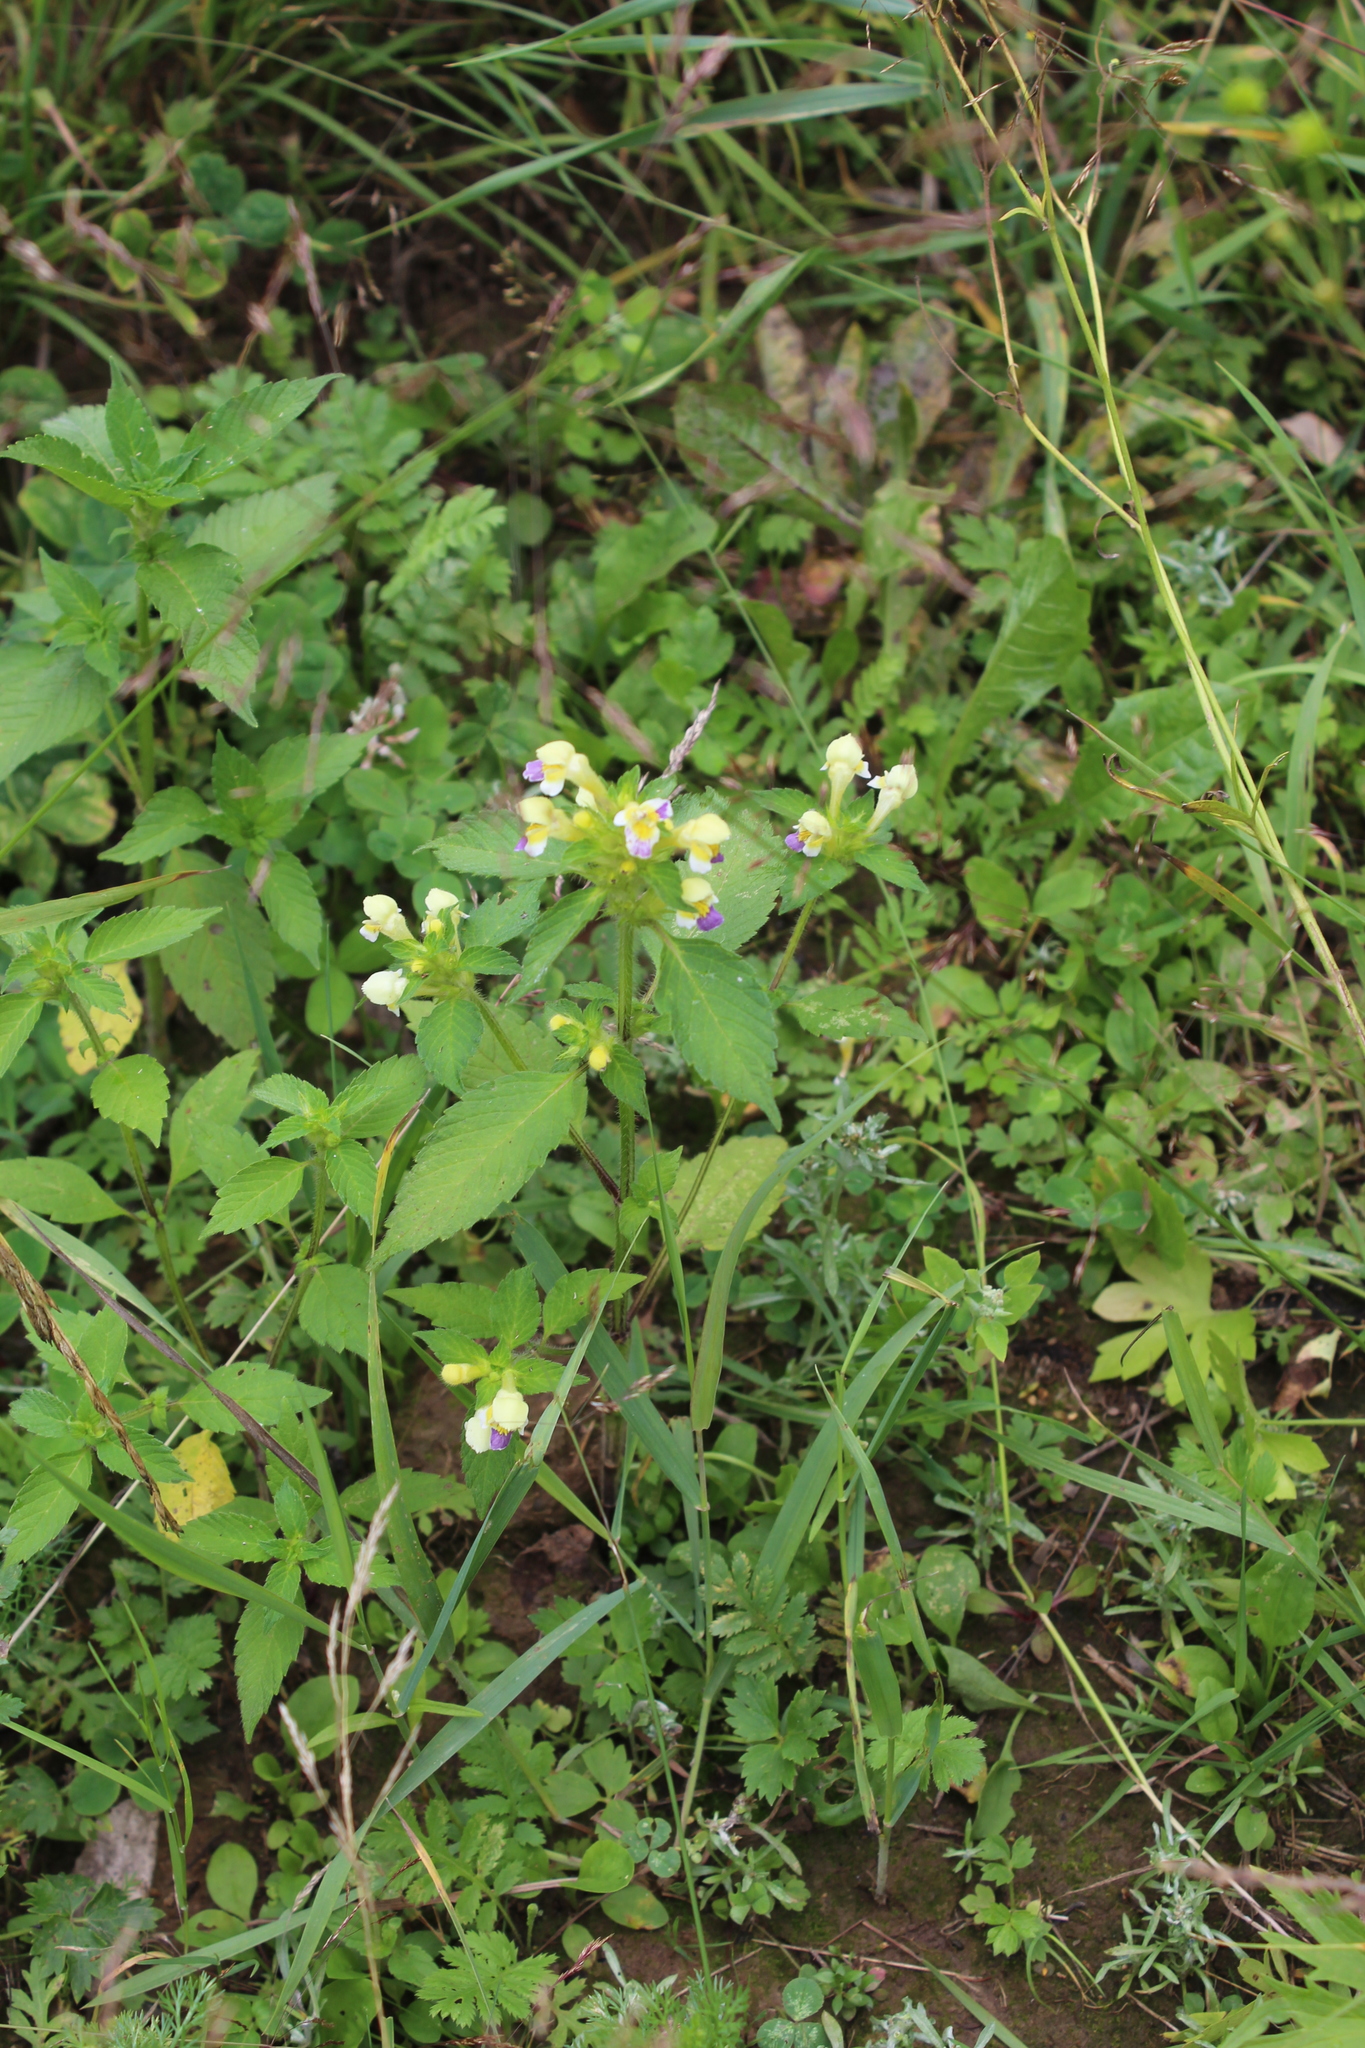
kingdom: Plantae
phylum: Tracheophyta
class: Magnoliopsida
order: Lamiales
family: Lamiaceae
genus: Galeopsis
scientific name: Galeopsis speciosa
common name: Large-flowered hemp-nettle
